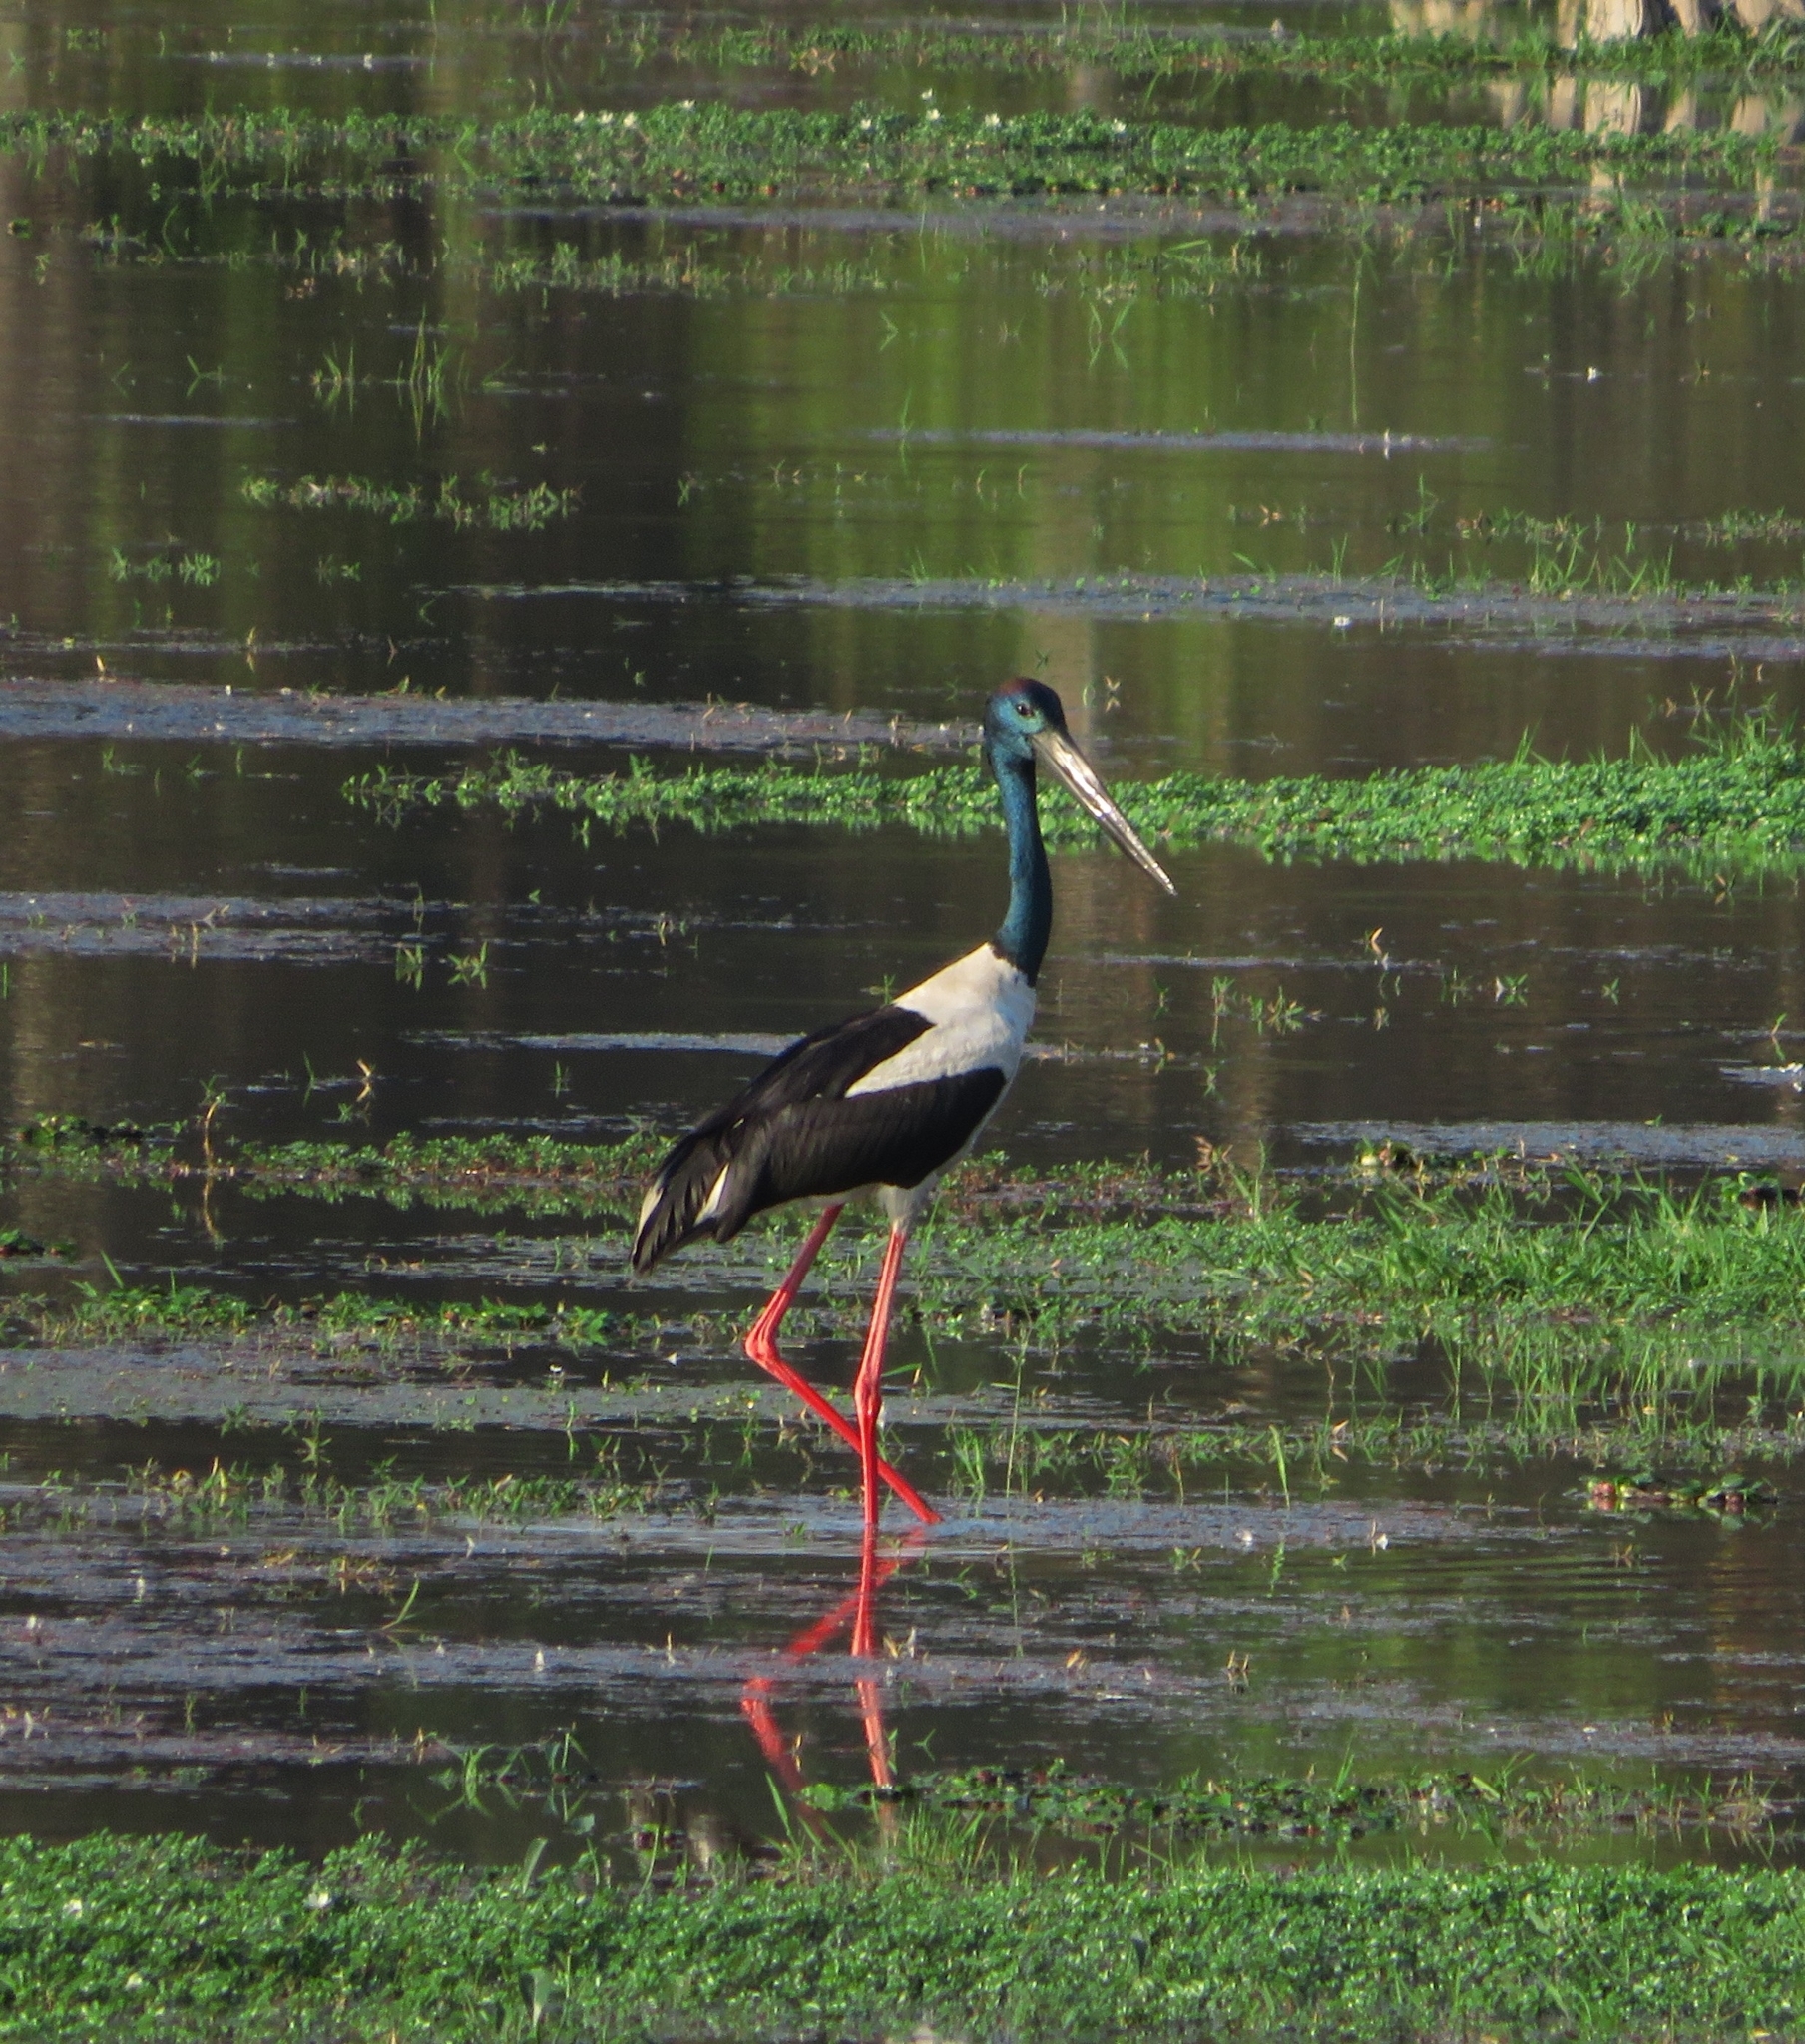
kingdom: Animalia
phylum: Chordata
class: Aves
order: Ciconiiformes
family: Ciconiidae
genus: Ephippiorhynchus
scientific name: Ephippiorhynchus asiaticus
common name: Black-necked stork
